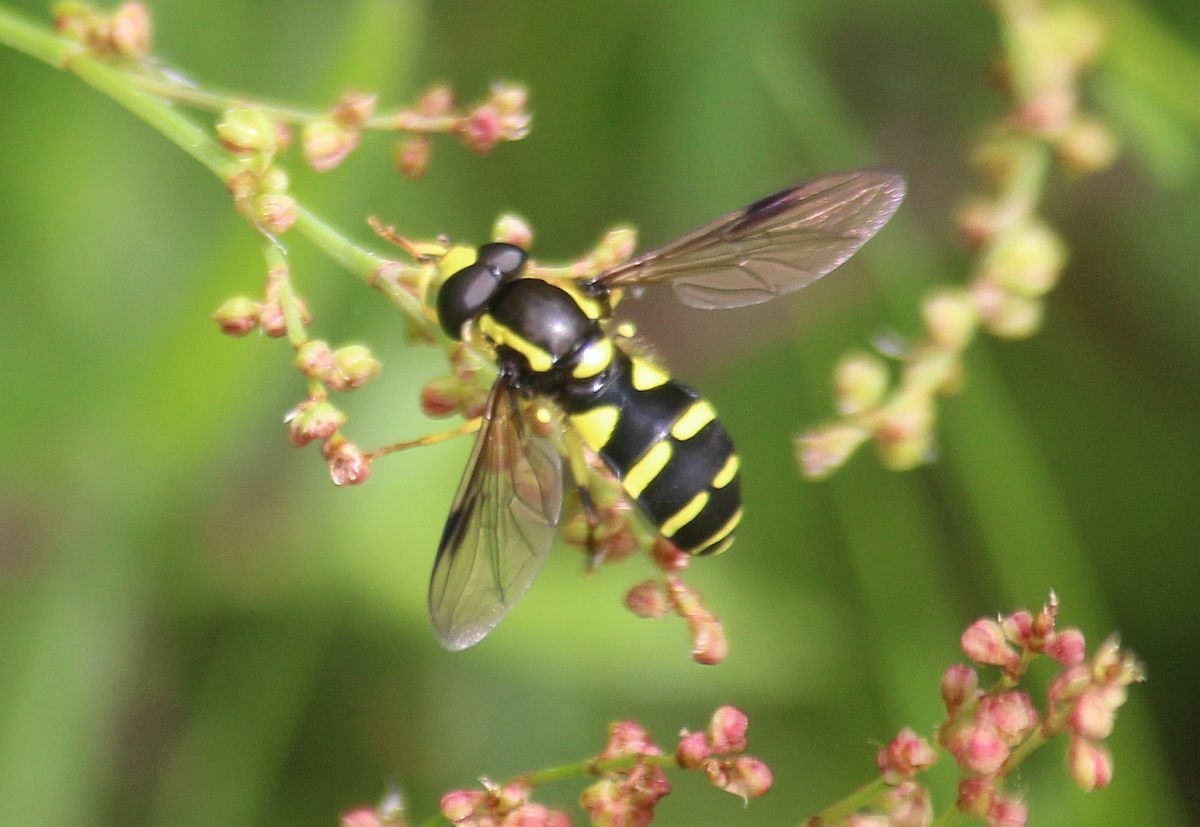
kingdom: Animalia
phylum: Arthropoda
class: Insecta
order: Diptera
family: Syrphidae
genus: Philhelius
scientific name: Philhelius pedissequum
